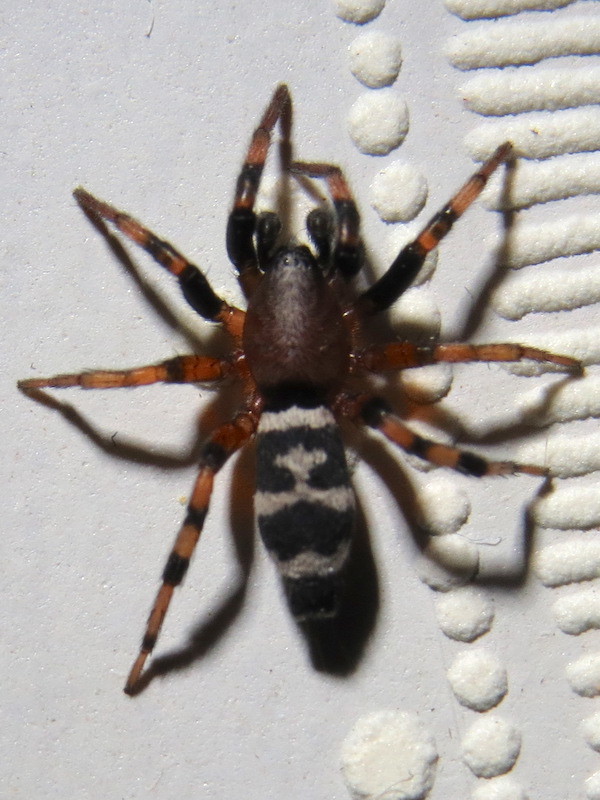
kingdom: Animalia
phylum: Arthropoda
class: Arachnida
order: Araneae
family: Gnaphosidae
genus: Sergiolus
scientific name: Sergiolus capulatus
